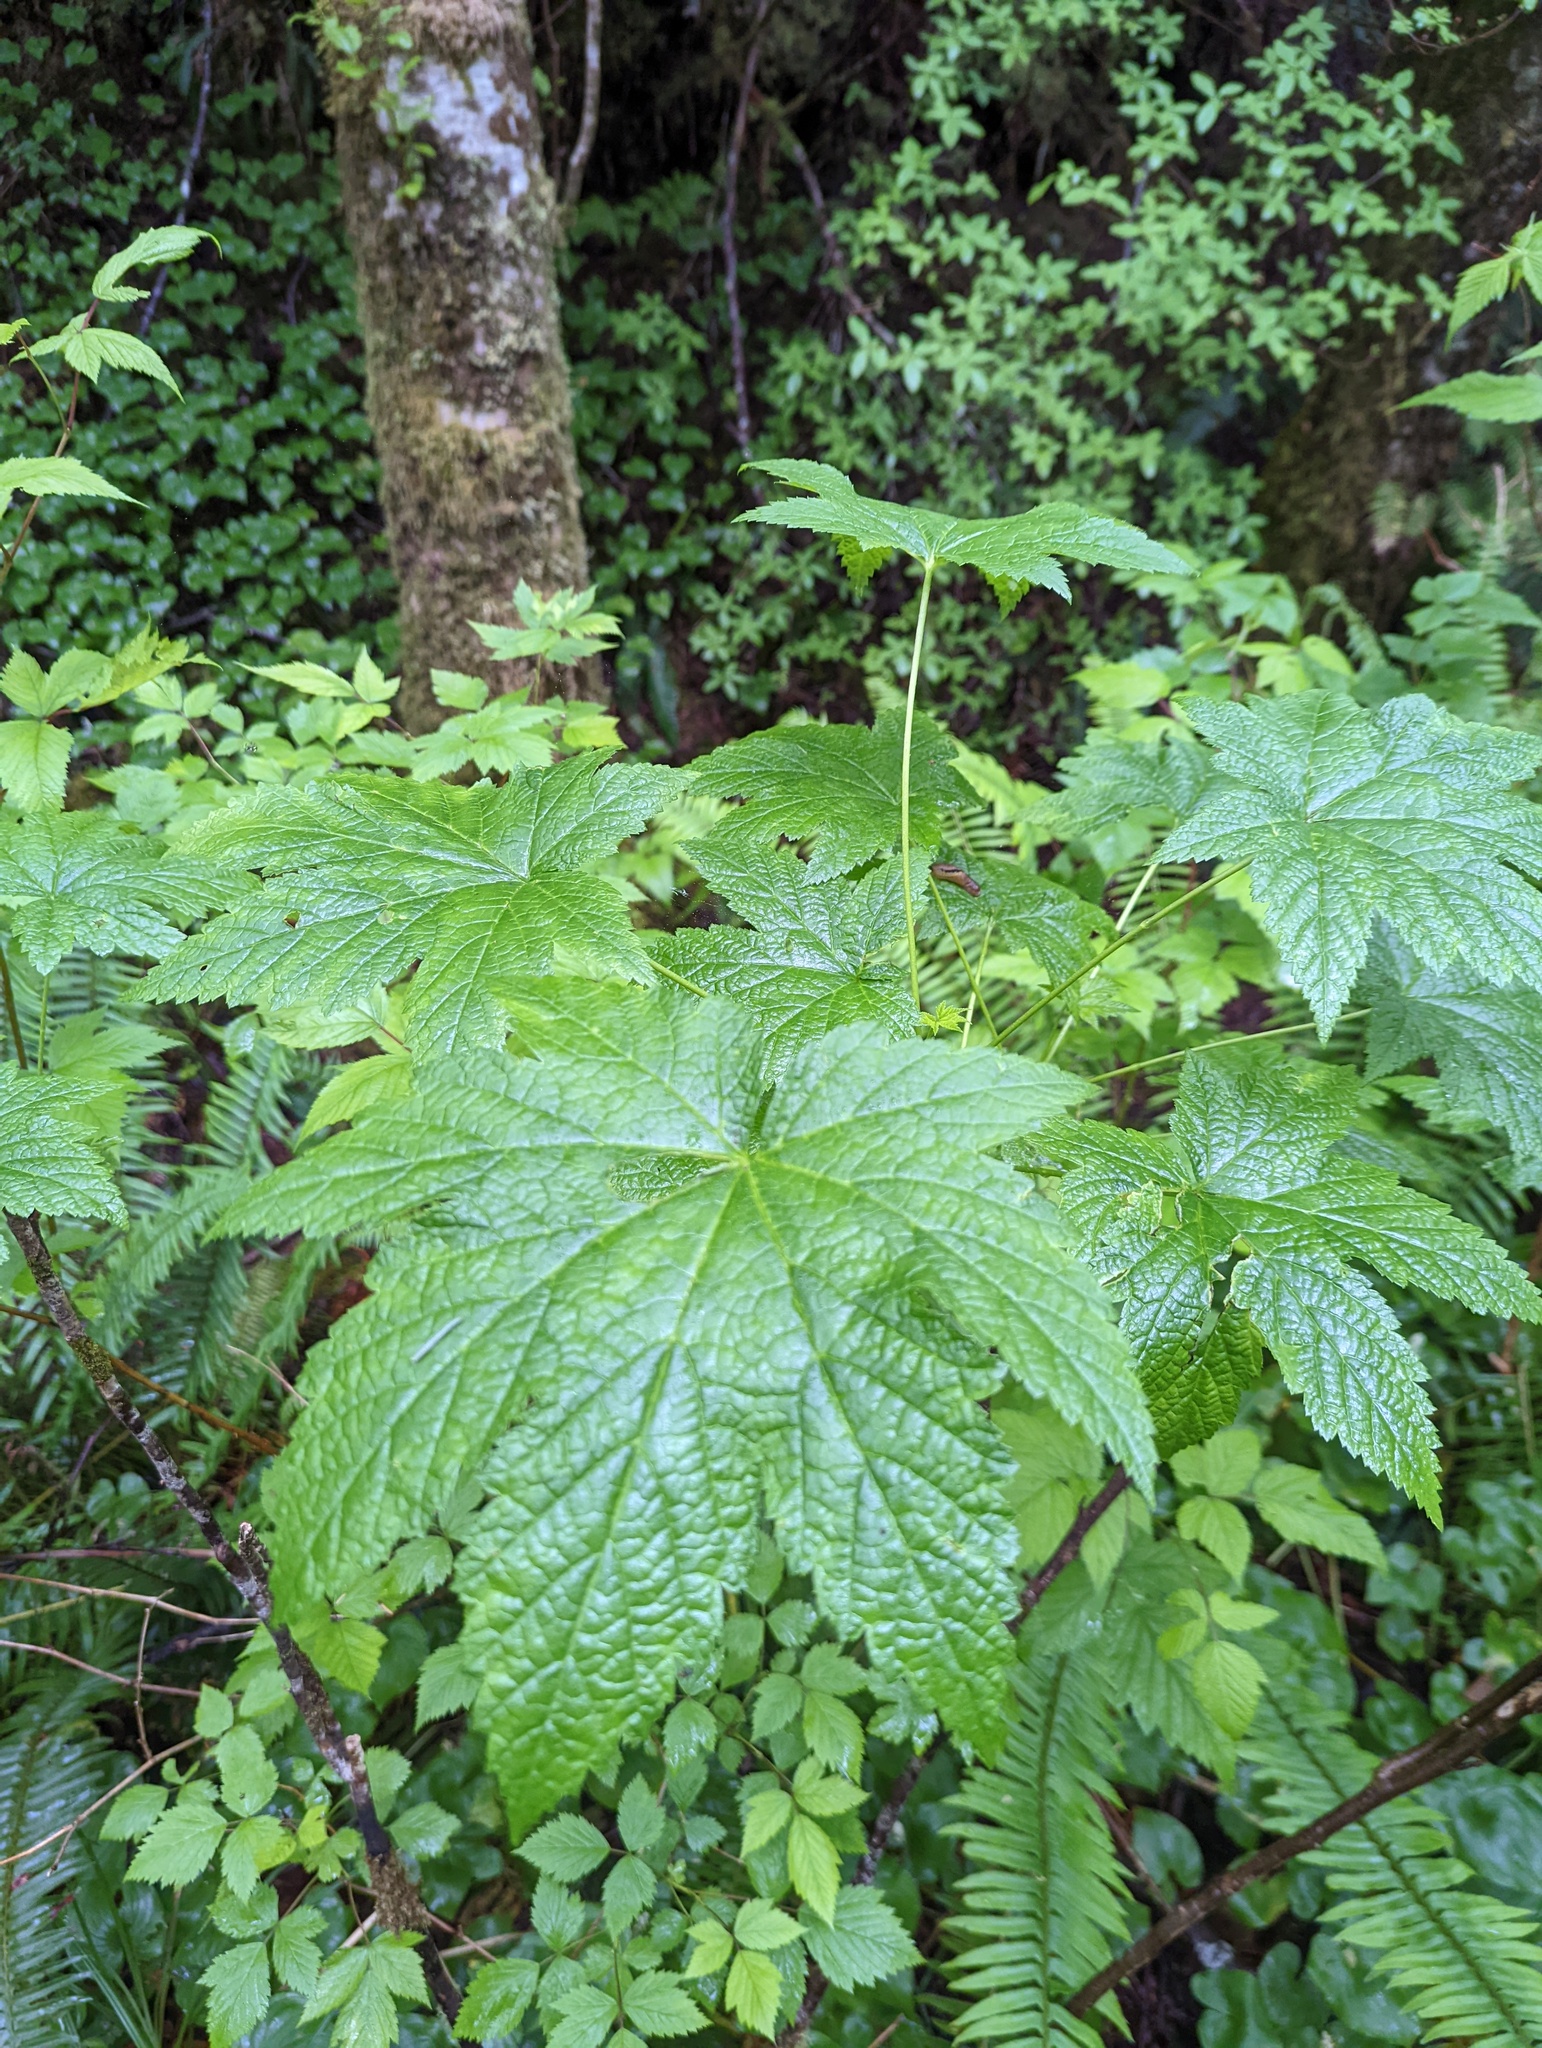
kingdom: Plantae
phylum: Tracheophyta
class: Magnoliopsida
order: Saxifragales
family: Grossulariaceae
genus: Ribes
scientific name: Ribes bracteosum
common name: California black currant
